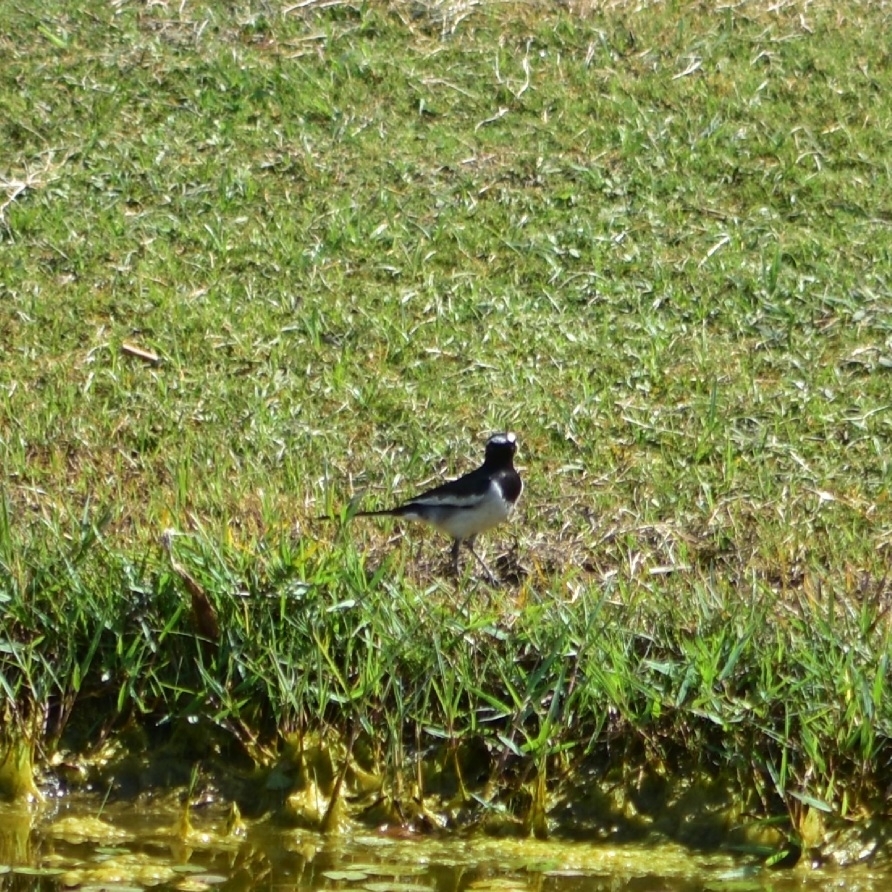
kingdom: Animalia
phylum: Chordata
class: Aves
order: Passeriformes
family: Motacillidae
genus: Motacilla
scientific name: Motacilla maderaspatensis
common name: White-browed wagtail
